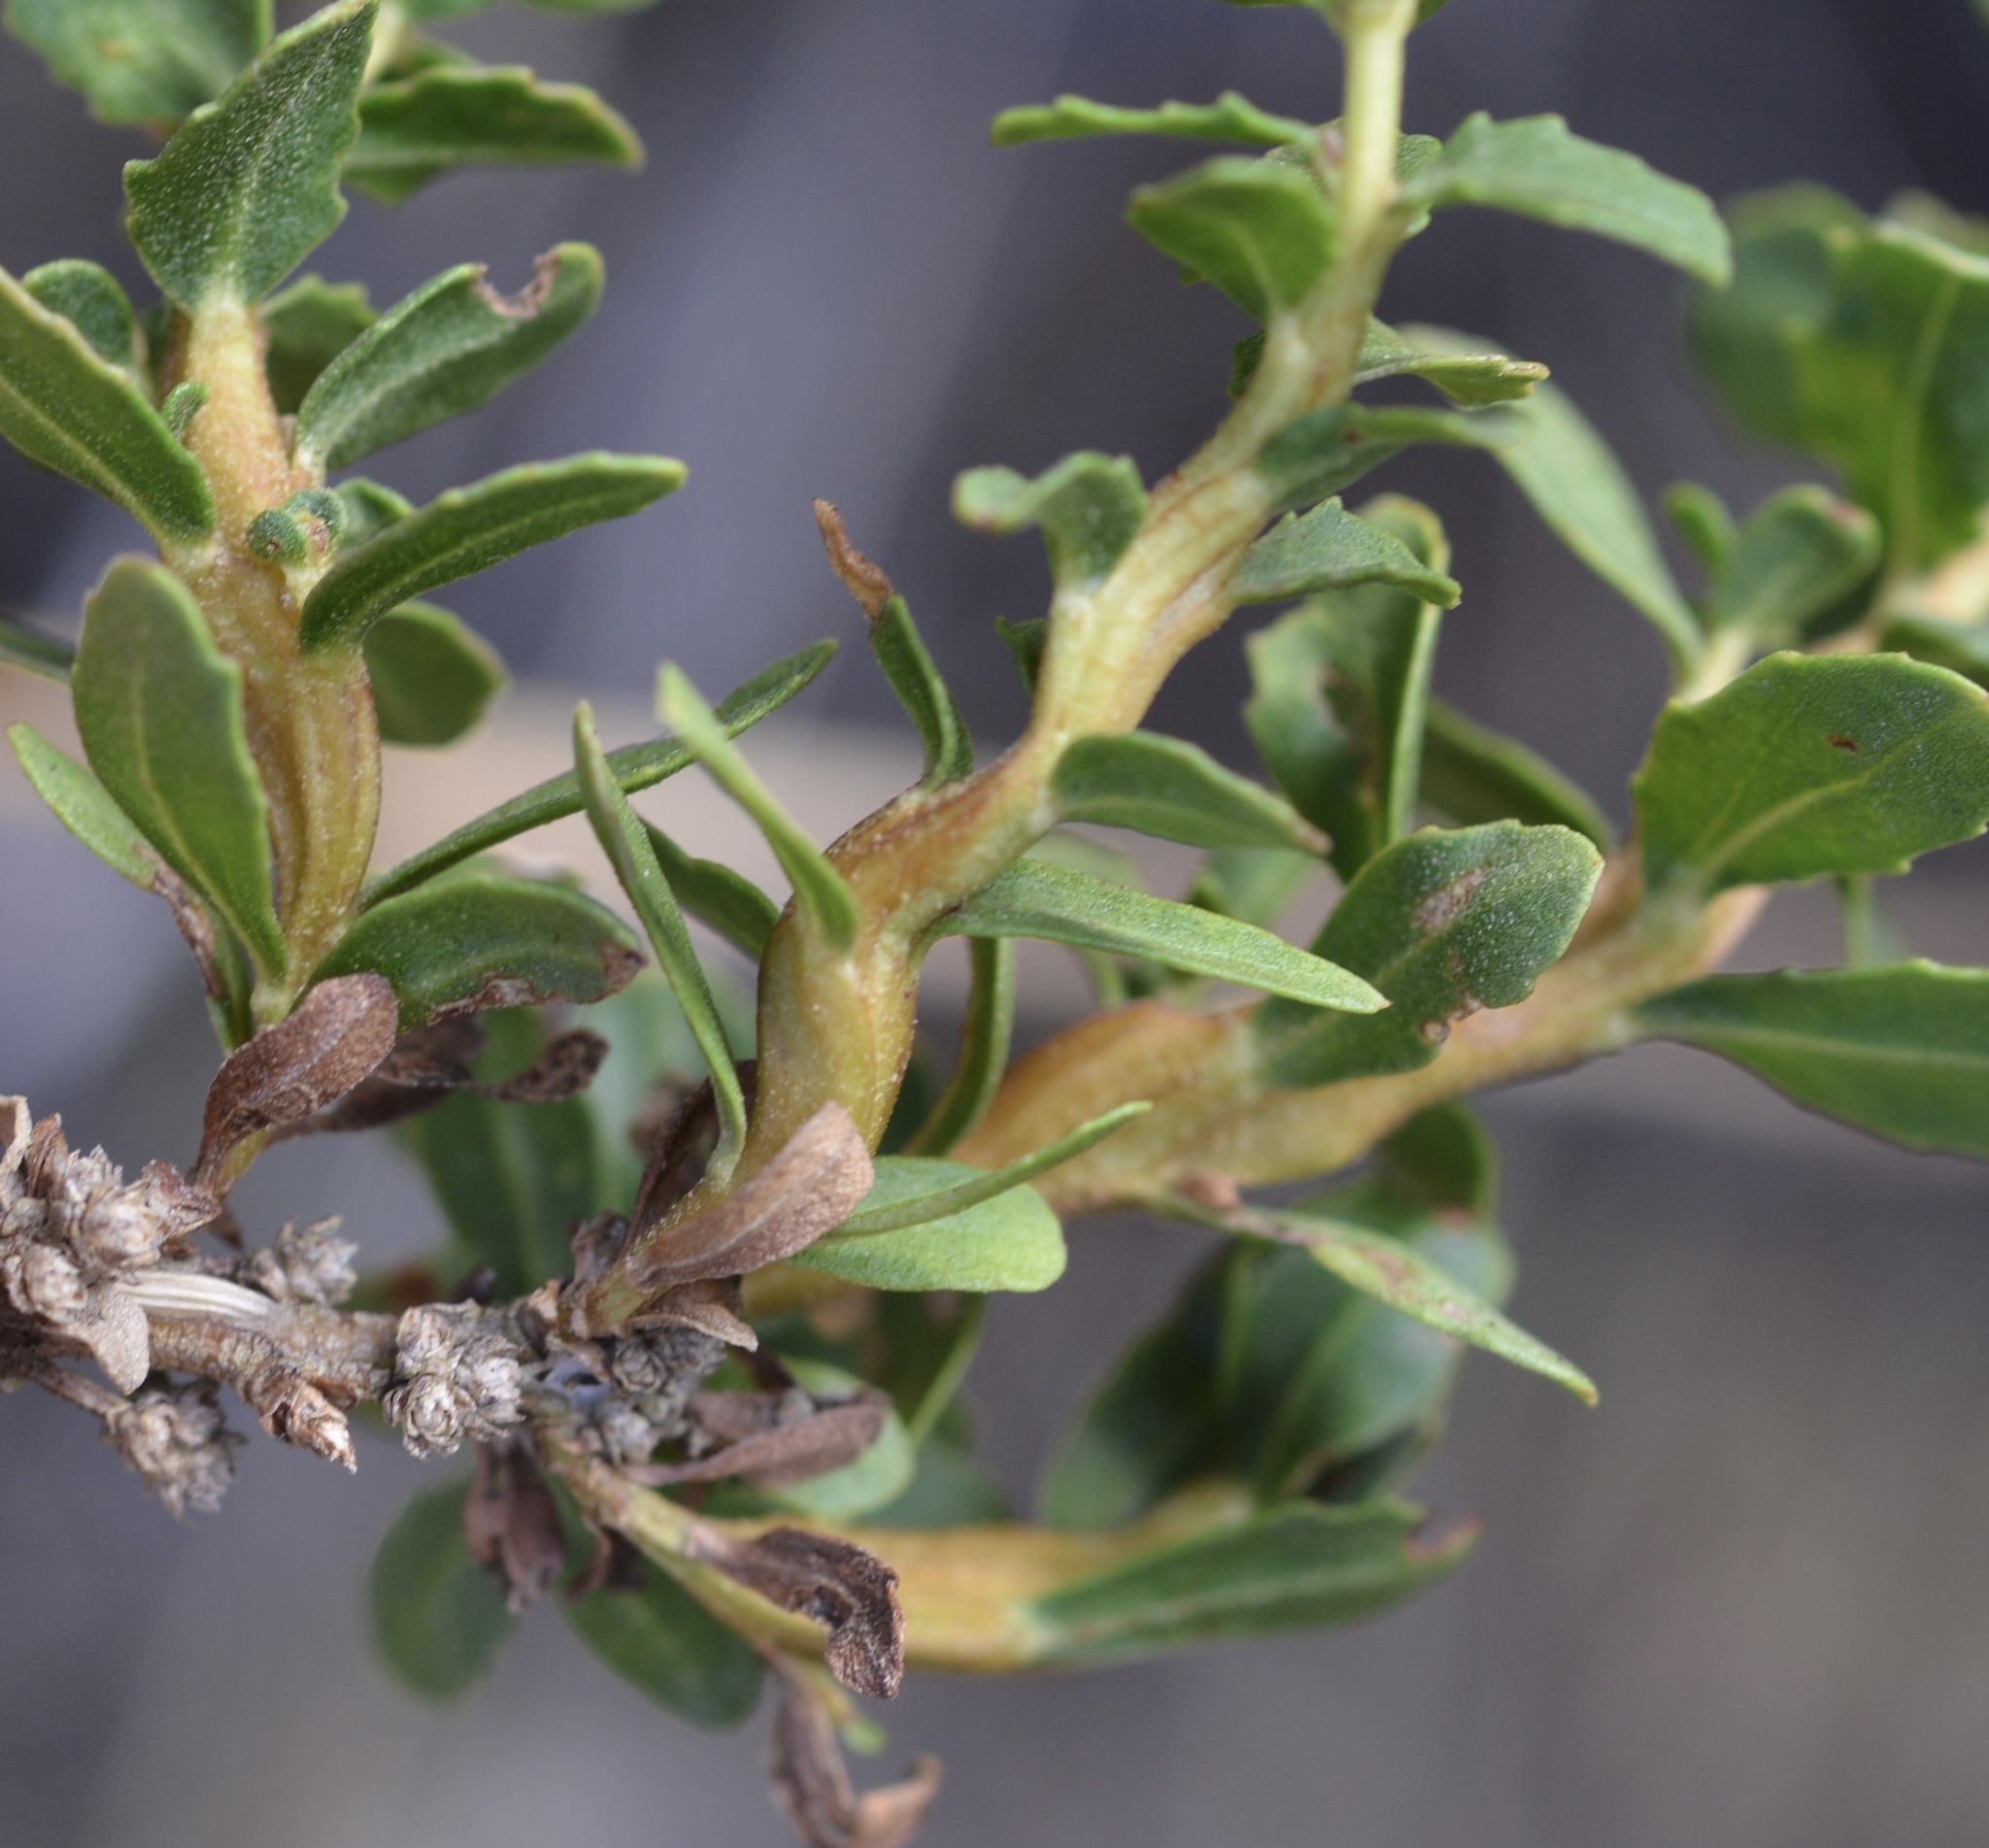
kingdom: Animalia
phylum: Arthropoda
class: Insecta
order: Diptera
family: Cecidomyiidae
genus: Rhopalomyia
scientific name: Rhopalomyia baccharis
